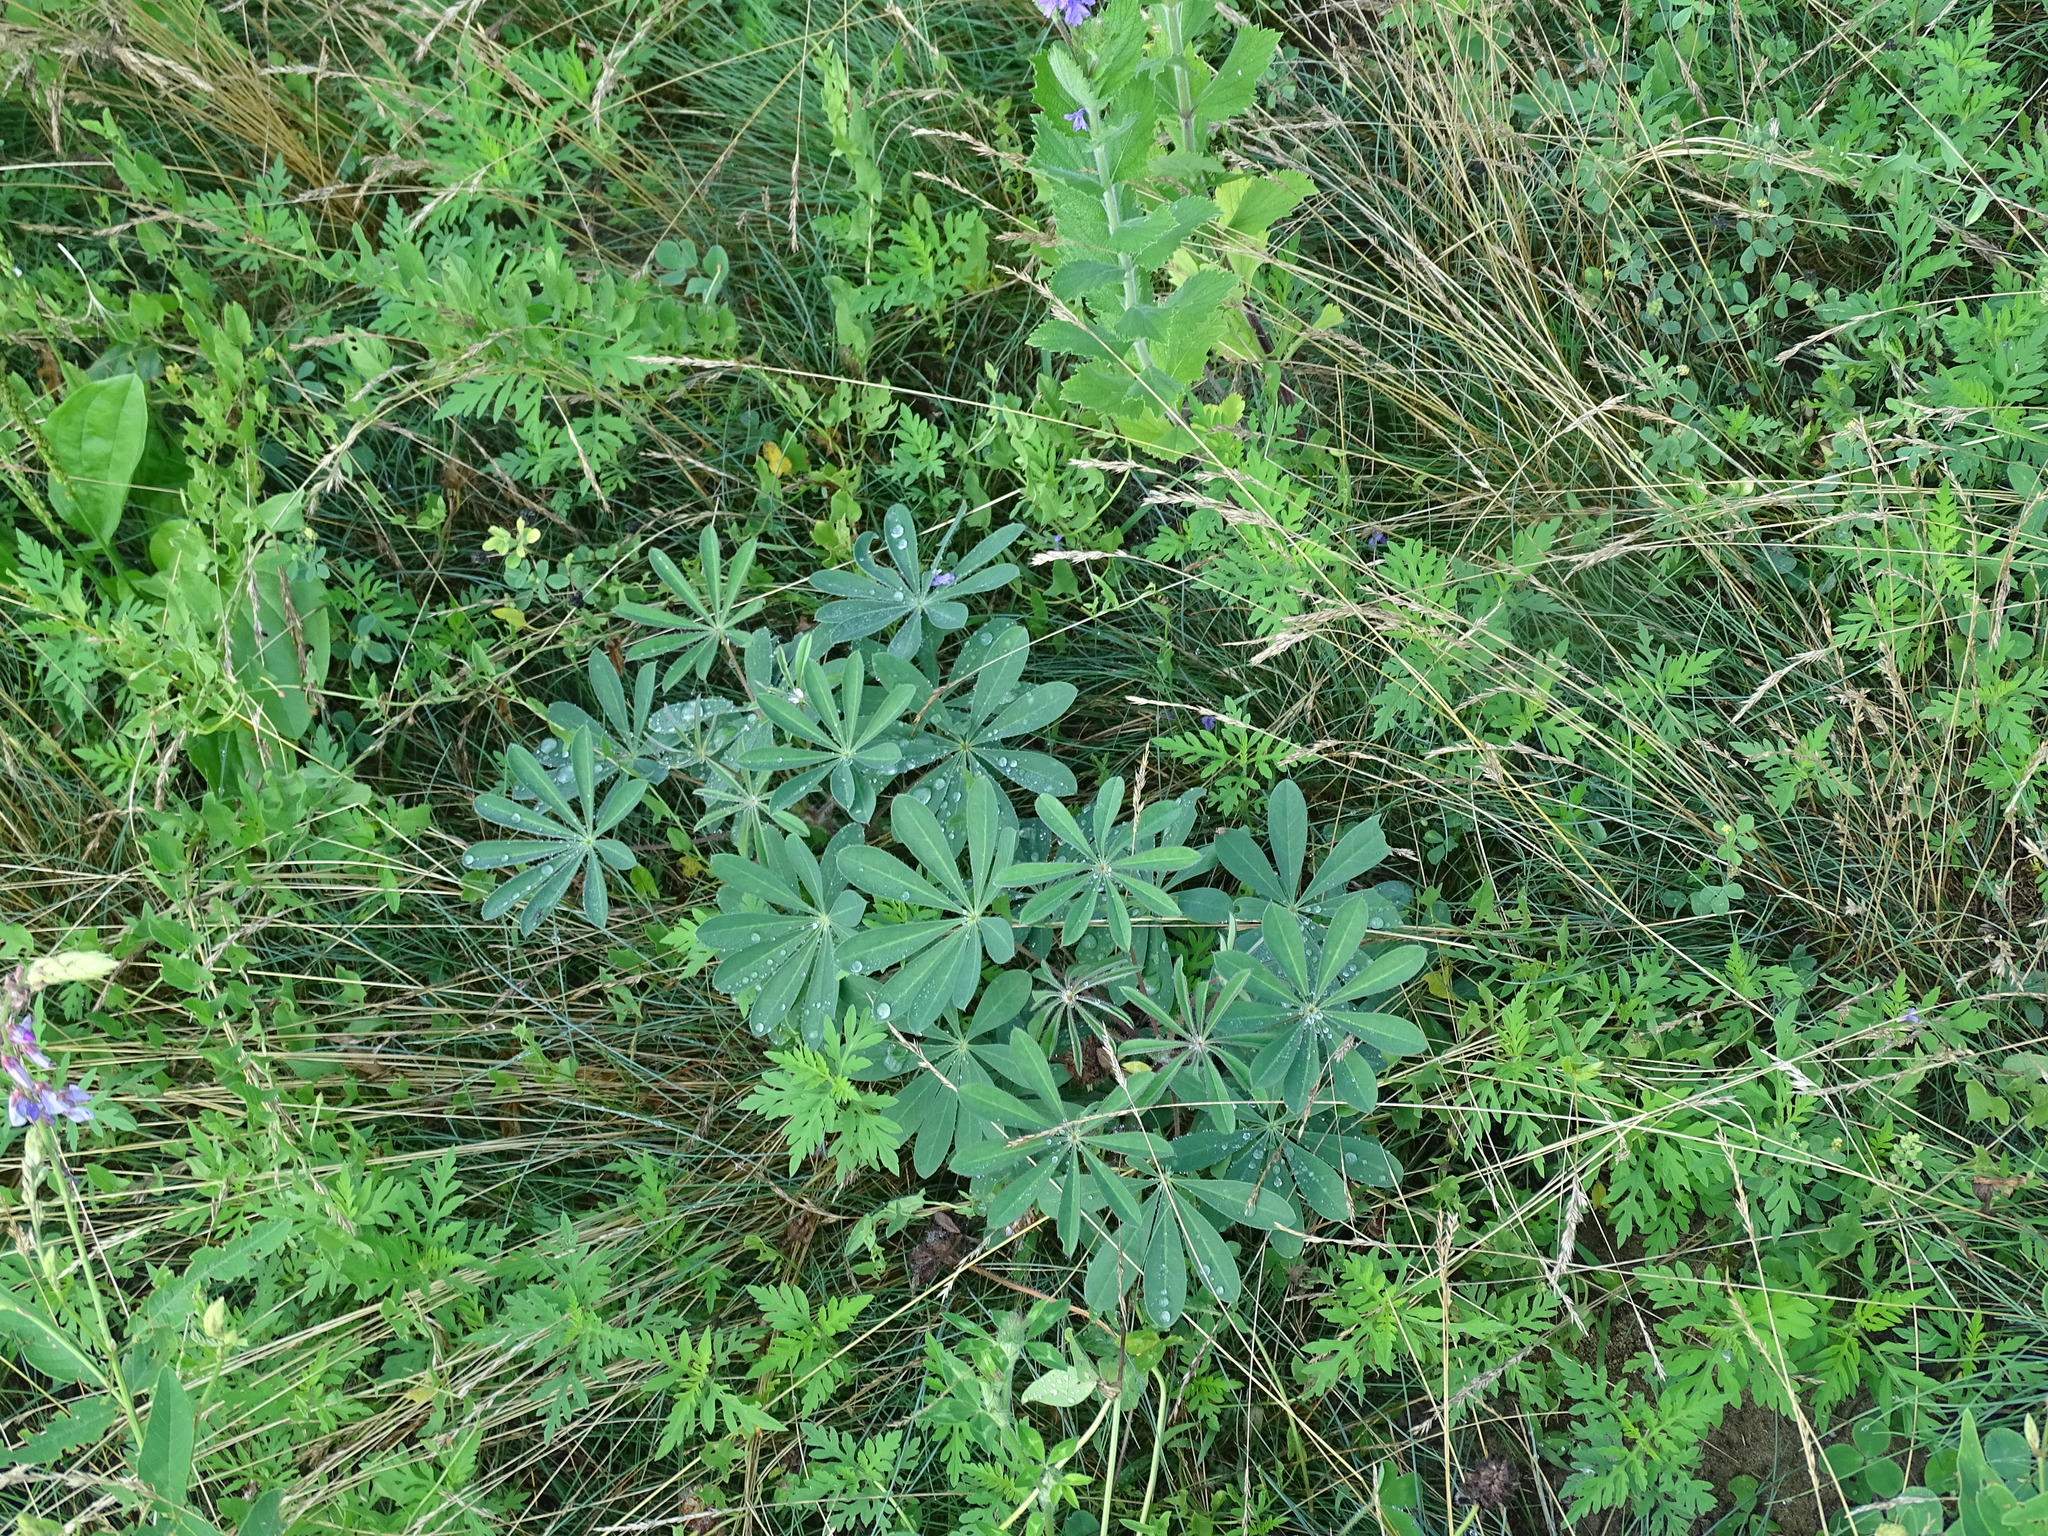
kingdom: Plantae
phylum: Tracheophyta
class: Magnoliopsida
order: Fabales
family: Fabaceae
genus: Lupinus
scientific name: Lupinus perennis
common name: Sundial lupine
